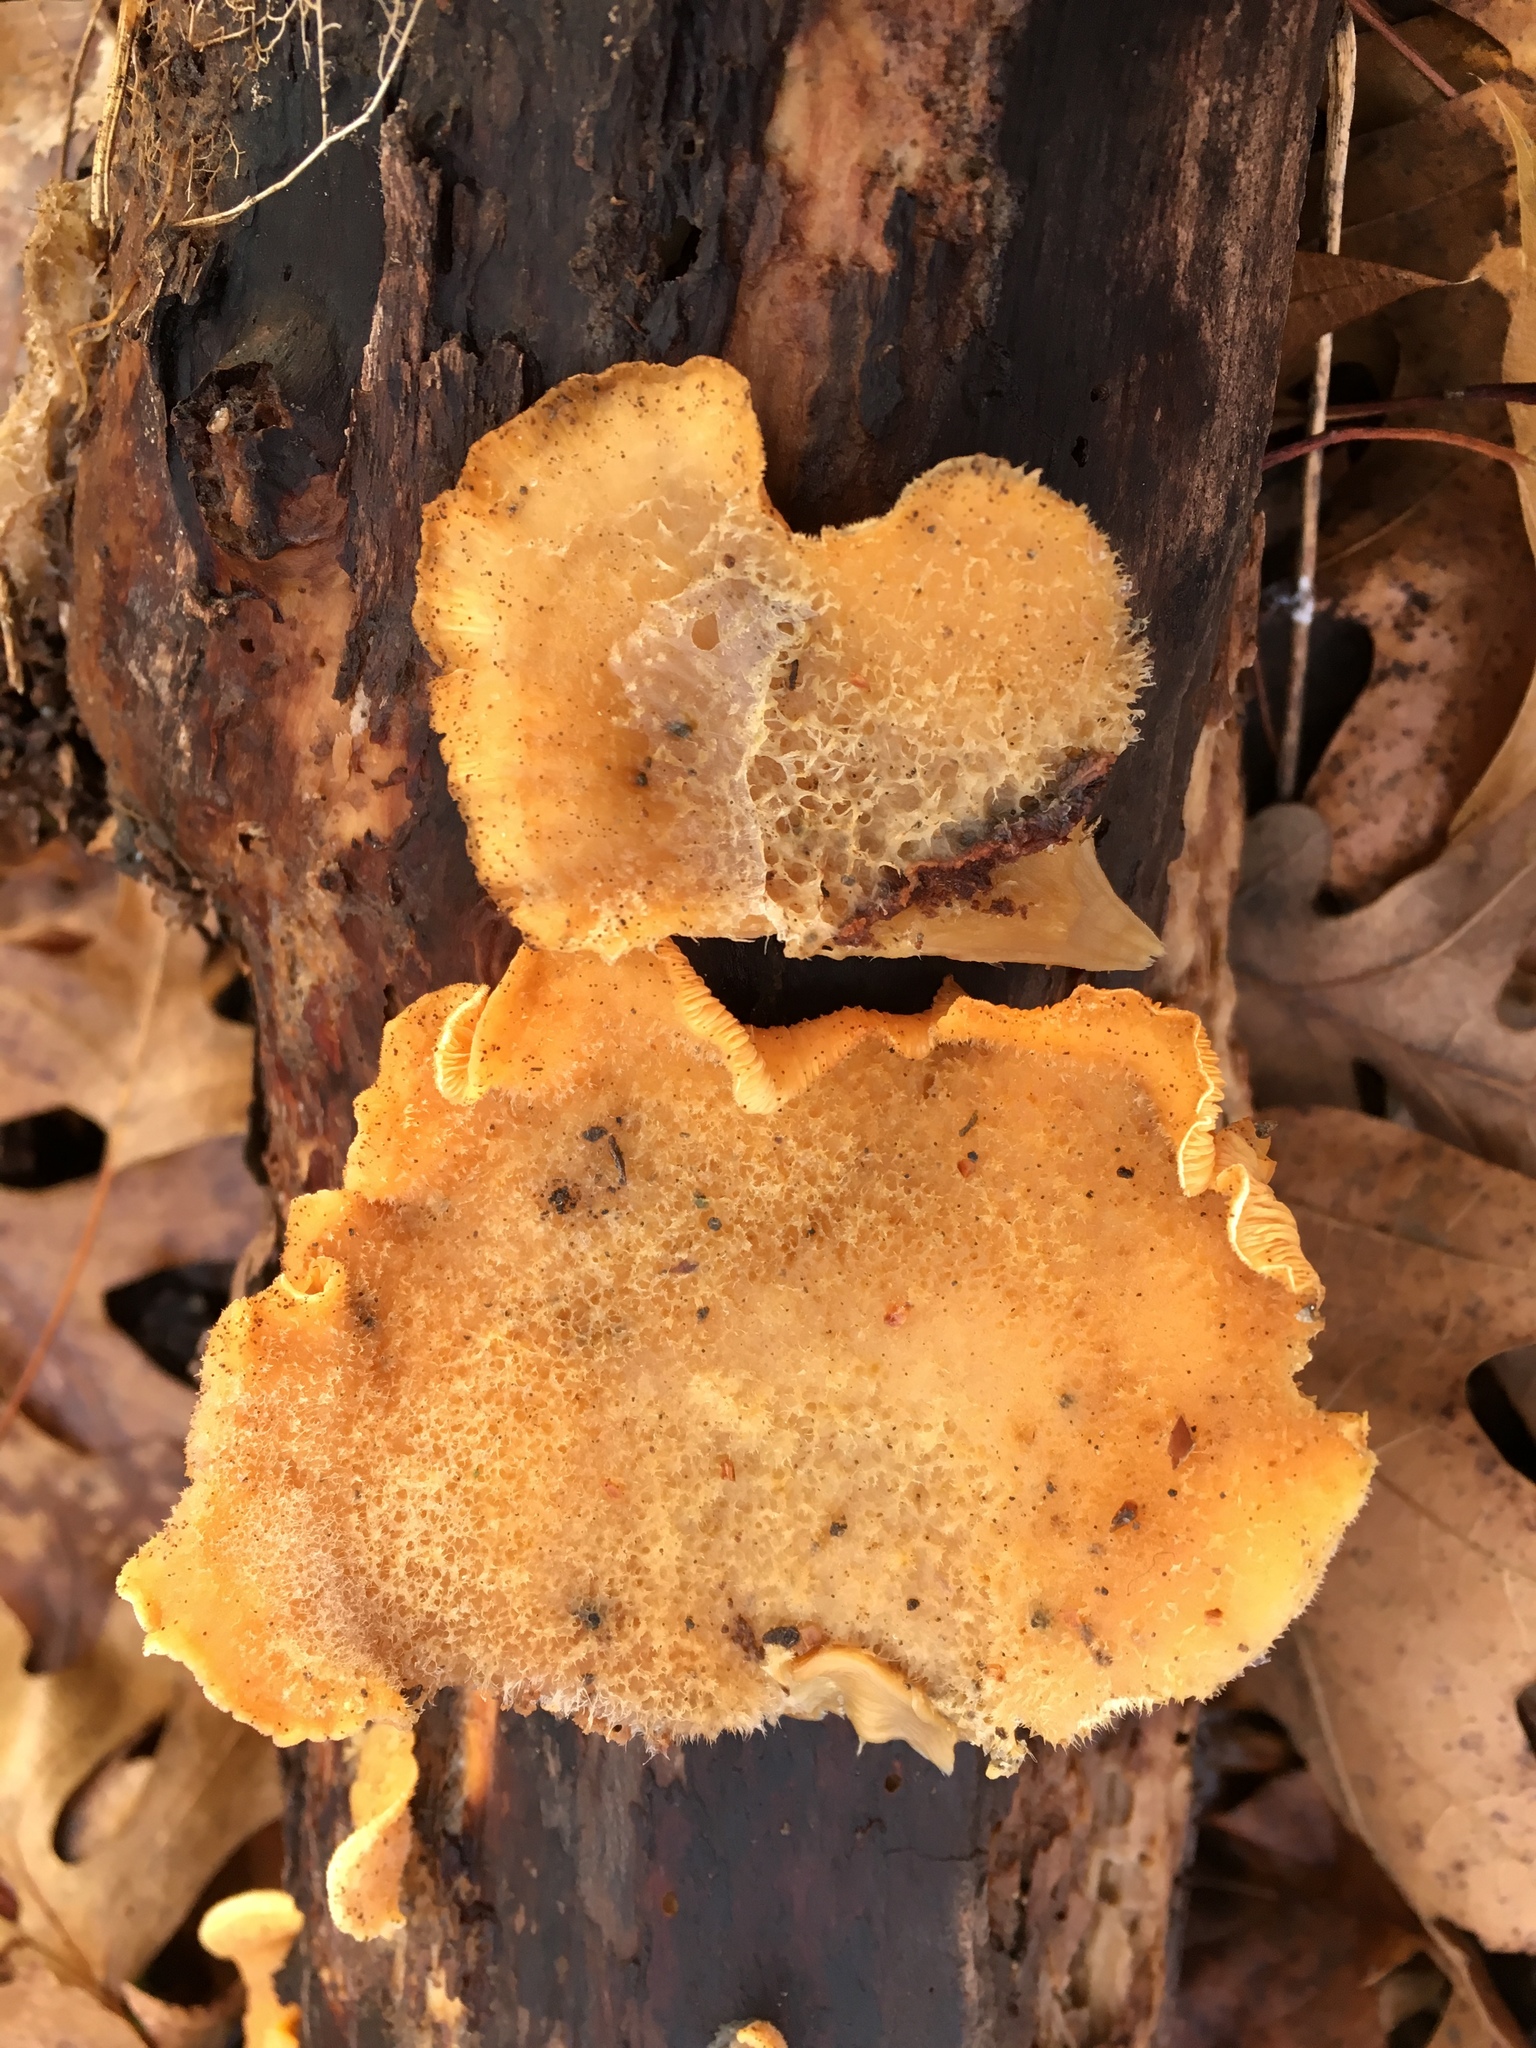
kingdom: Fungi
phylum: Basidiomycota
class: Agaricomycetes
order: Agaricales
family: Phyllotopsidaceae
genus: Phyllotopsis
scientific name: Phyllotopsis nidulans
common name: Orange mock oyster
